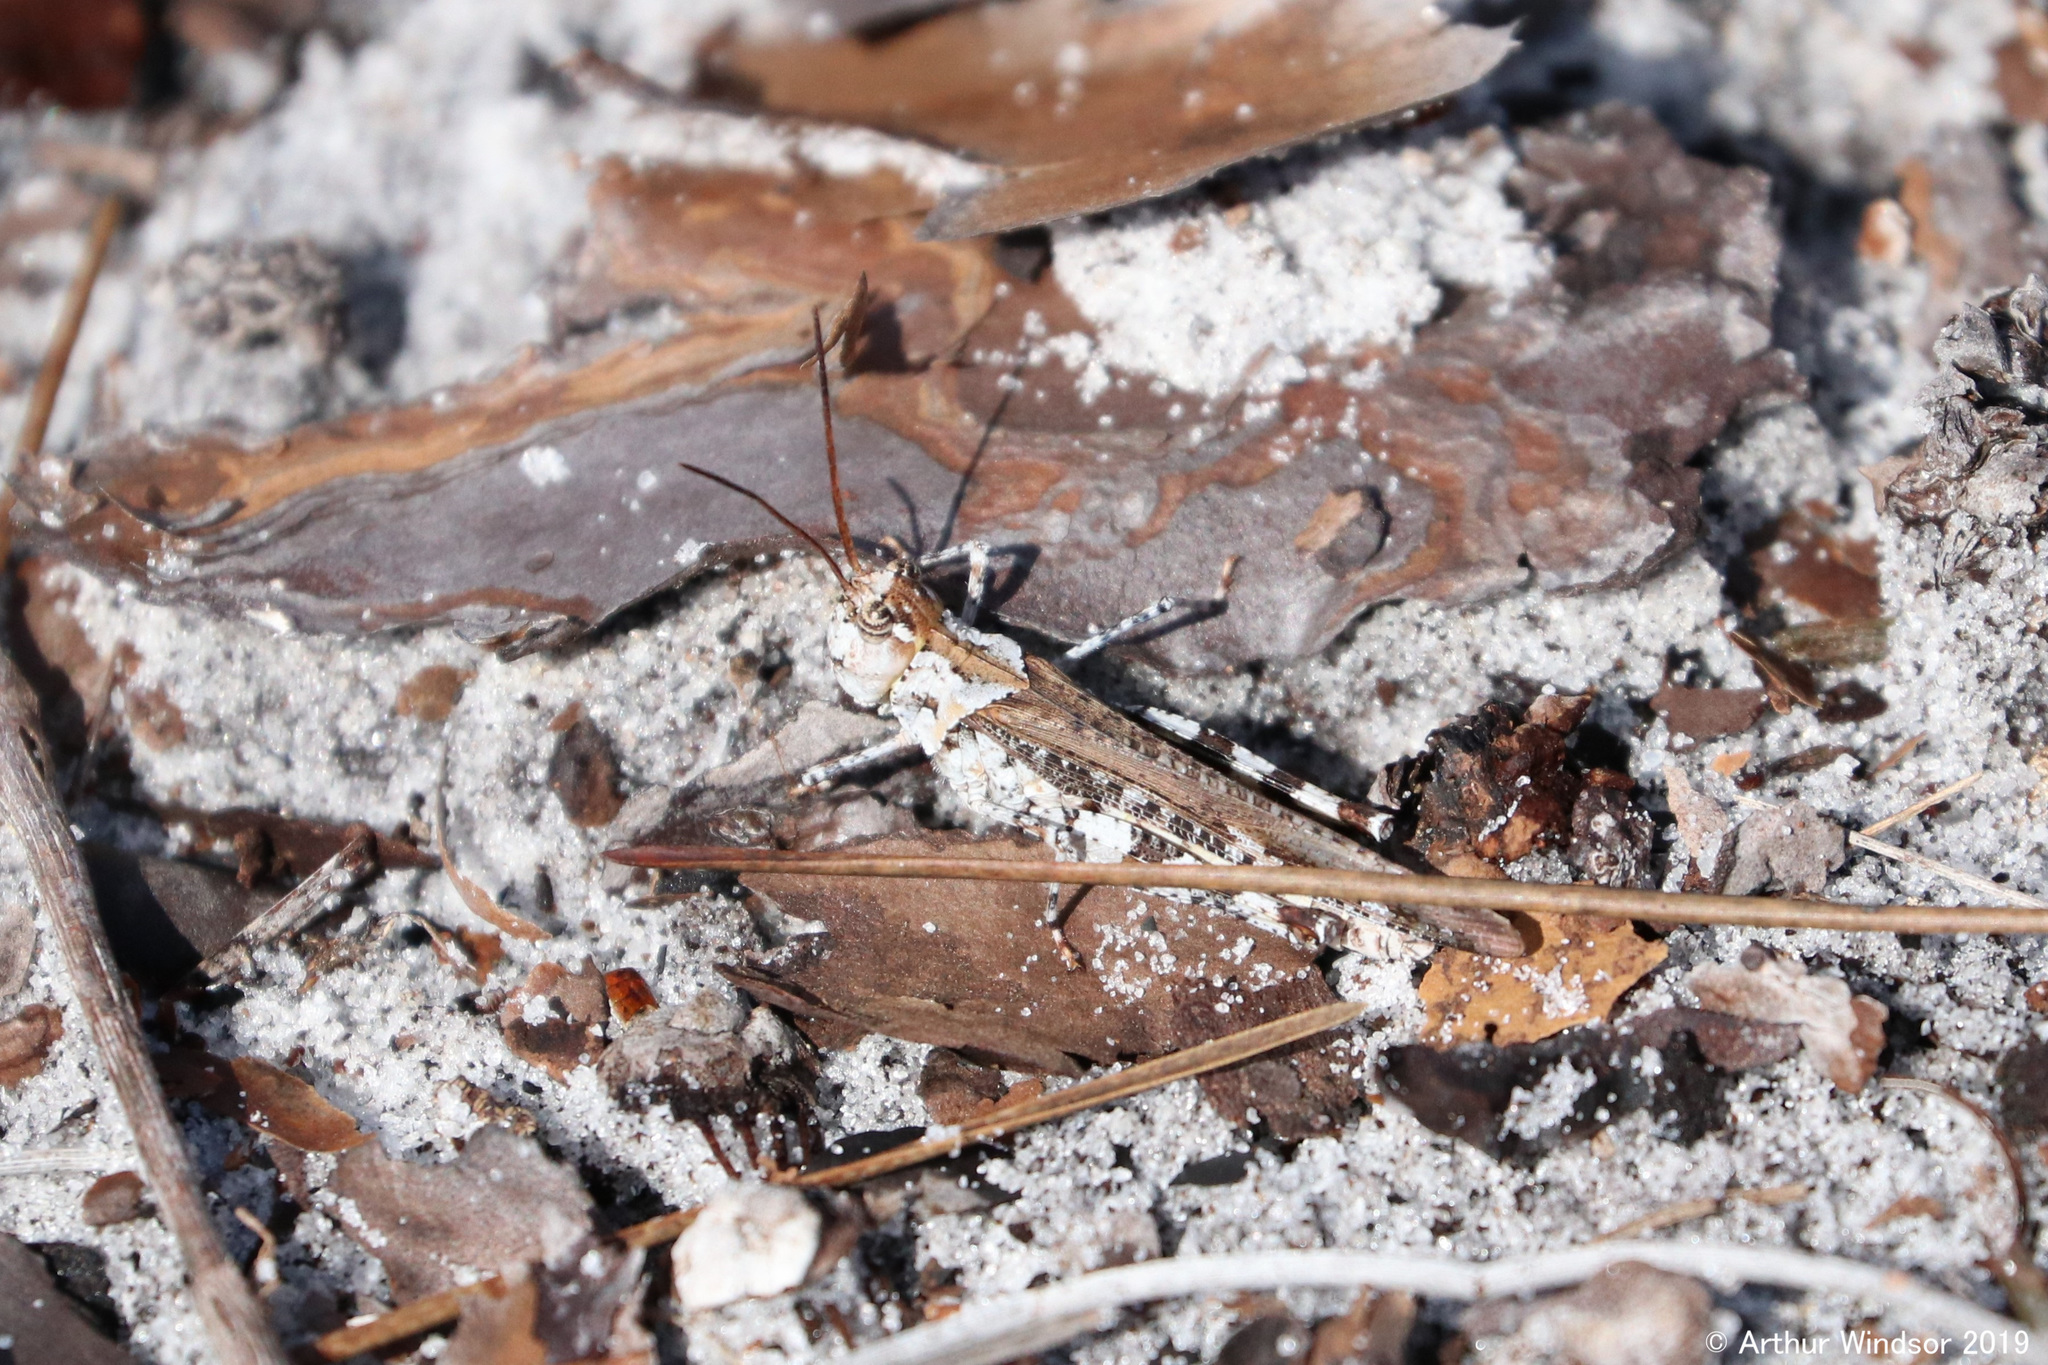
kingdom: Animalia
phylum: Arthropoda
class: Insecta
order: Orthoptera
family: Acrididae
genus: Psinidia
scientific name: Psinidia fenestralis
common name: Long-horned locust
